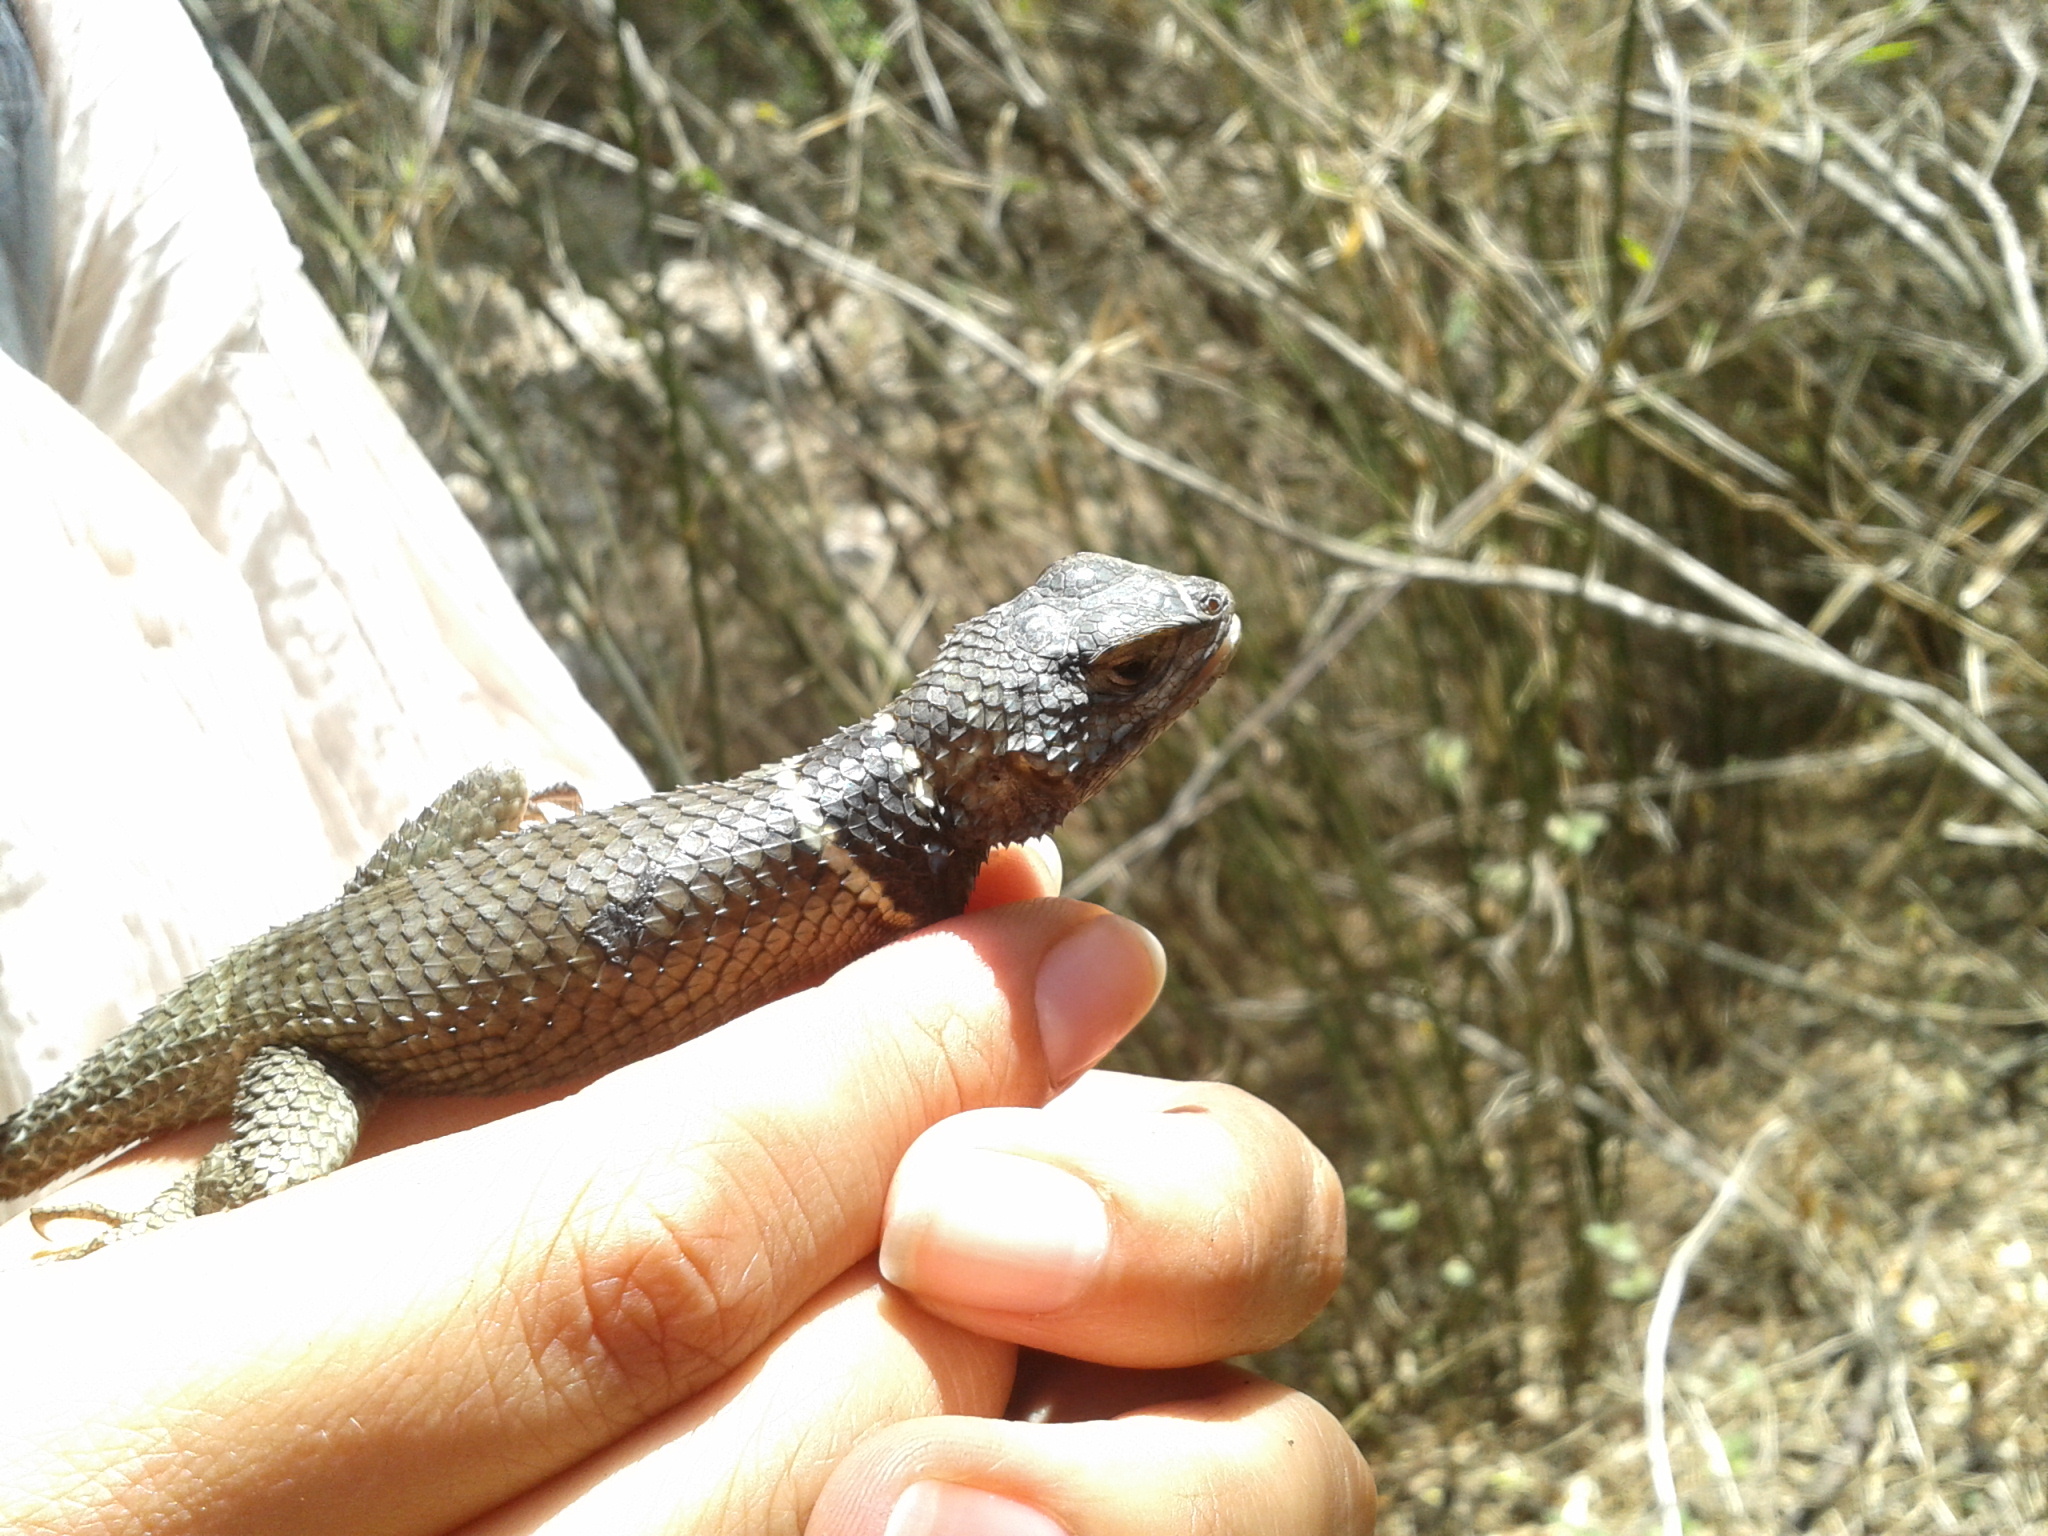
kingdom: Animalia
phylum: Chordata
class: Squamata
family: Phrynosomatidae
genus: Sceloporus
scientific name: Sceloporus mucronatus
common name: Central cleft lizard
